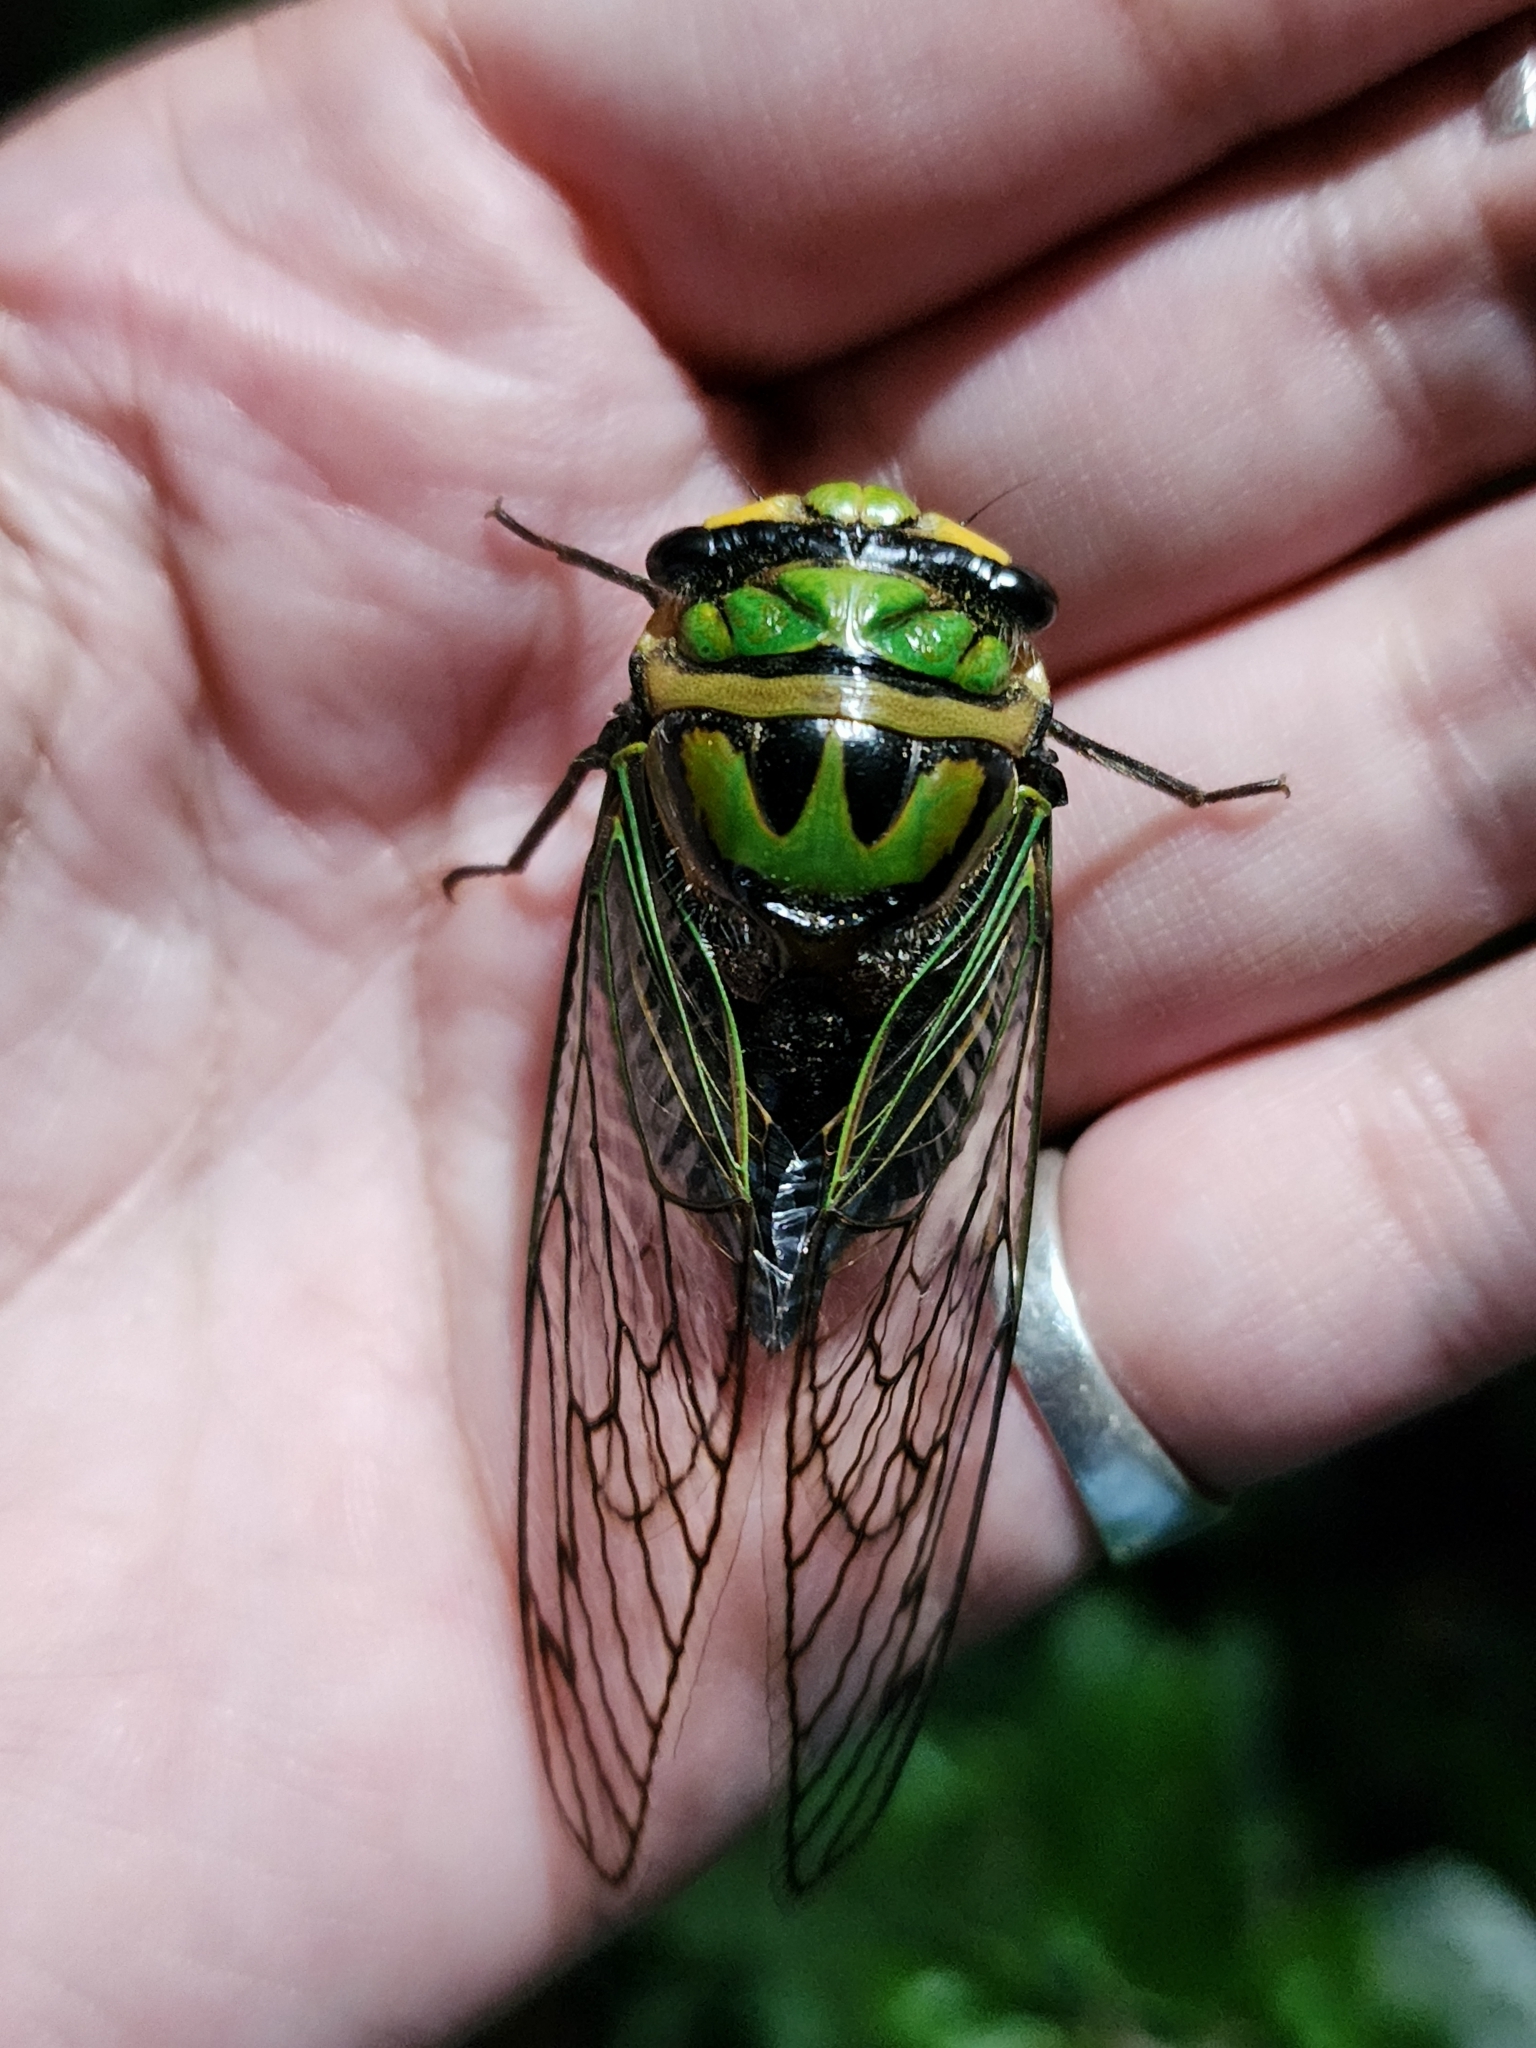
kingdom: Animalia
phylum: Arthropoda
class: Insecta
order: Hemiptera
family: Cicadidae
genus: Guyalna
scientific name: Guyalna bonaerensis
